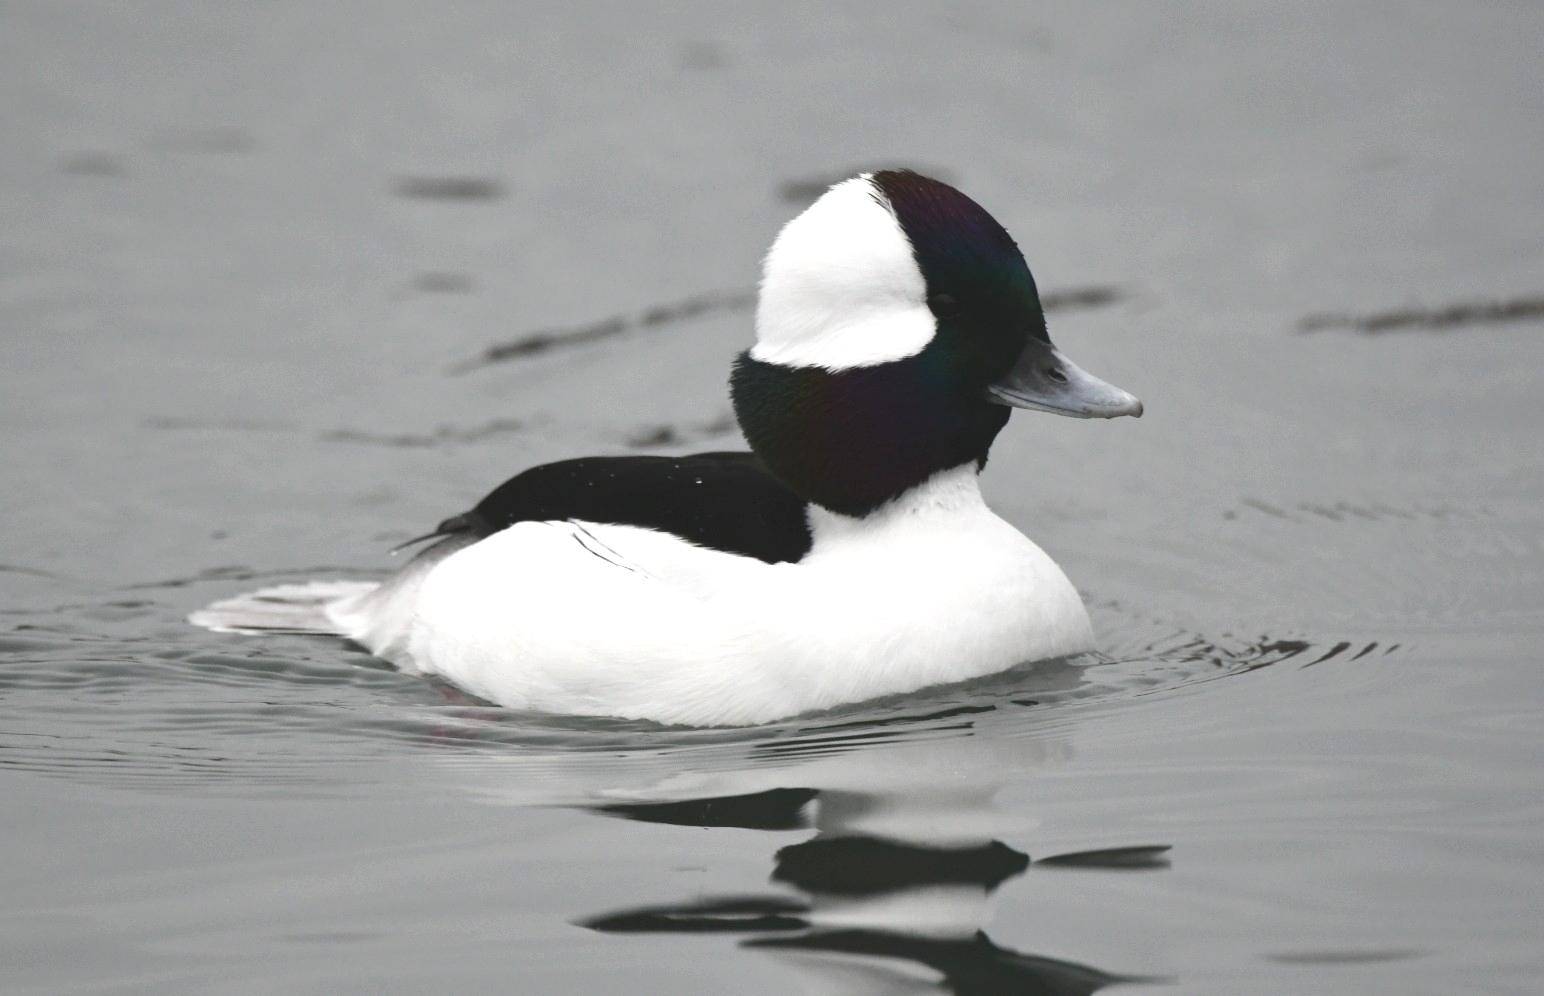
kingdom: Animalia
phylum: Chordata
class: Aves
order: Anseriformes
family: Anatidae
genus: Bucephala
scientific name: Bucephala albeola
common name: Bufflehead
